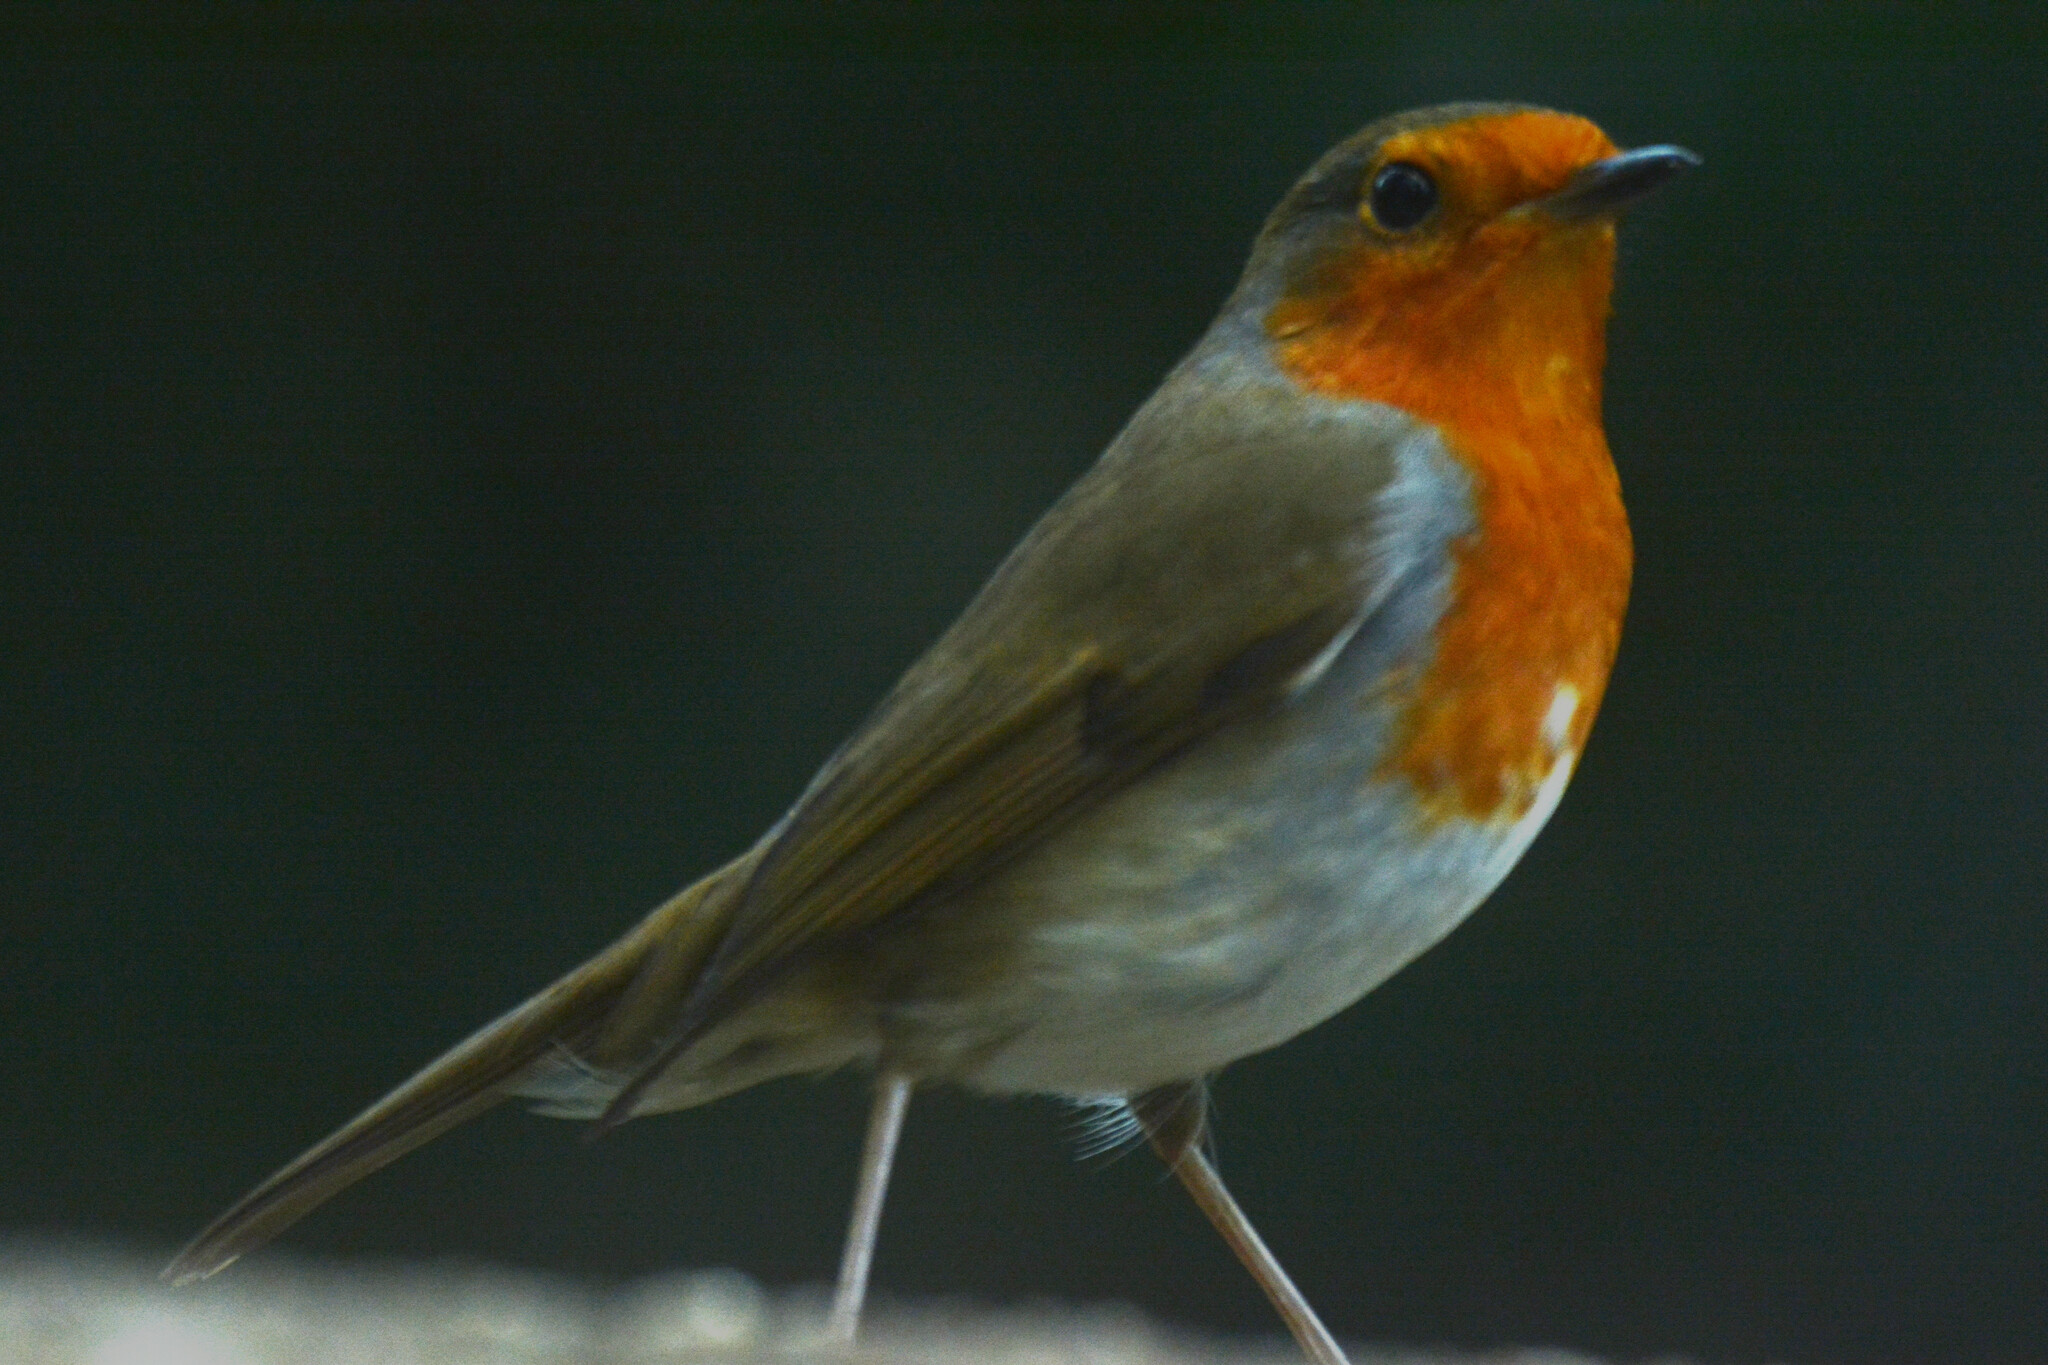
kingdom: Animalia
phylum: Chordata
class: Aves
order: Passeriformes
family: Muscicapidae
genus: Erithacus
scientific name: Erithacus rubecula
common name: European robin
